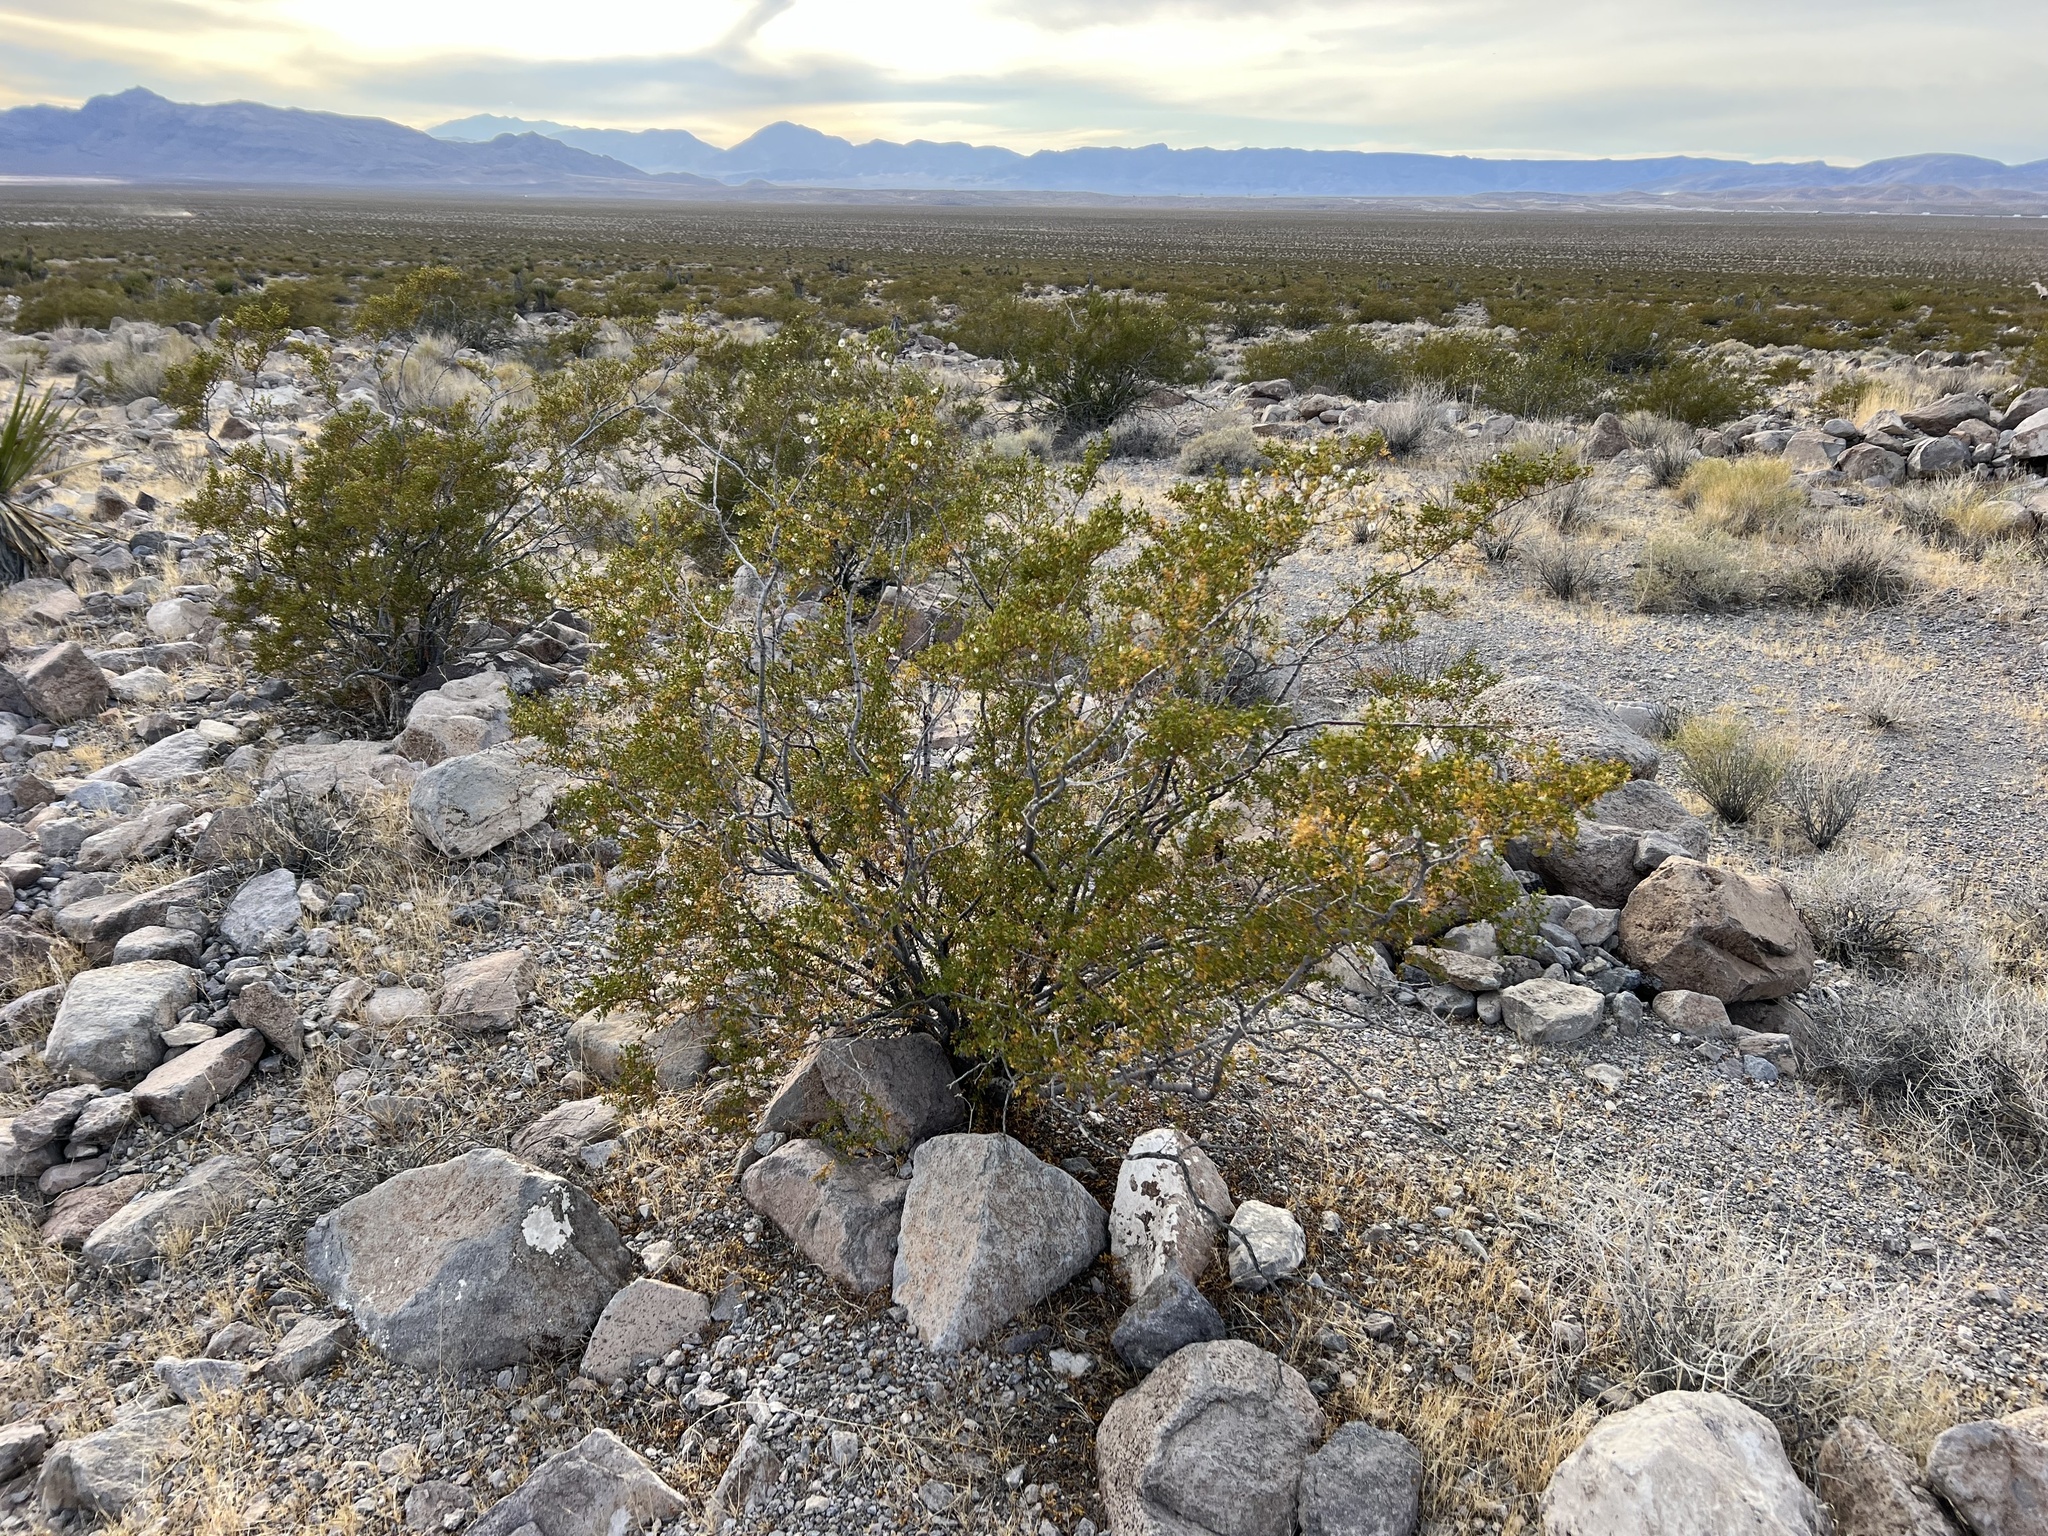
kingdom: Plantae
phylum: Tracheophyta
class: Magnoliopsida
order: Zygophyllales
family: Zygophyllaceae
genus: Larrea
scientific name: Larrea tridentata
